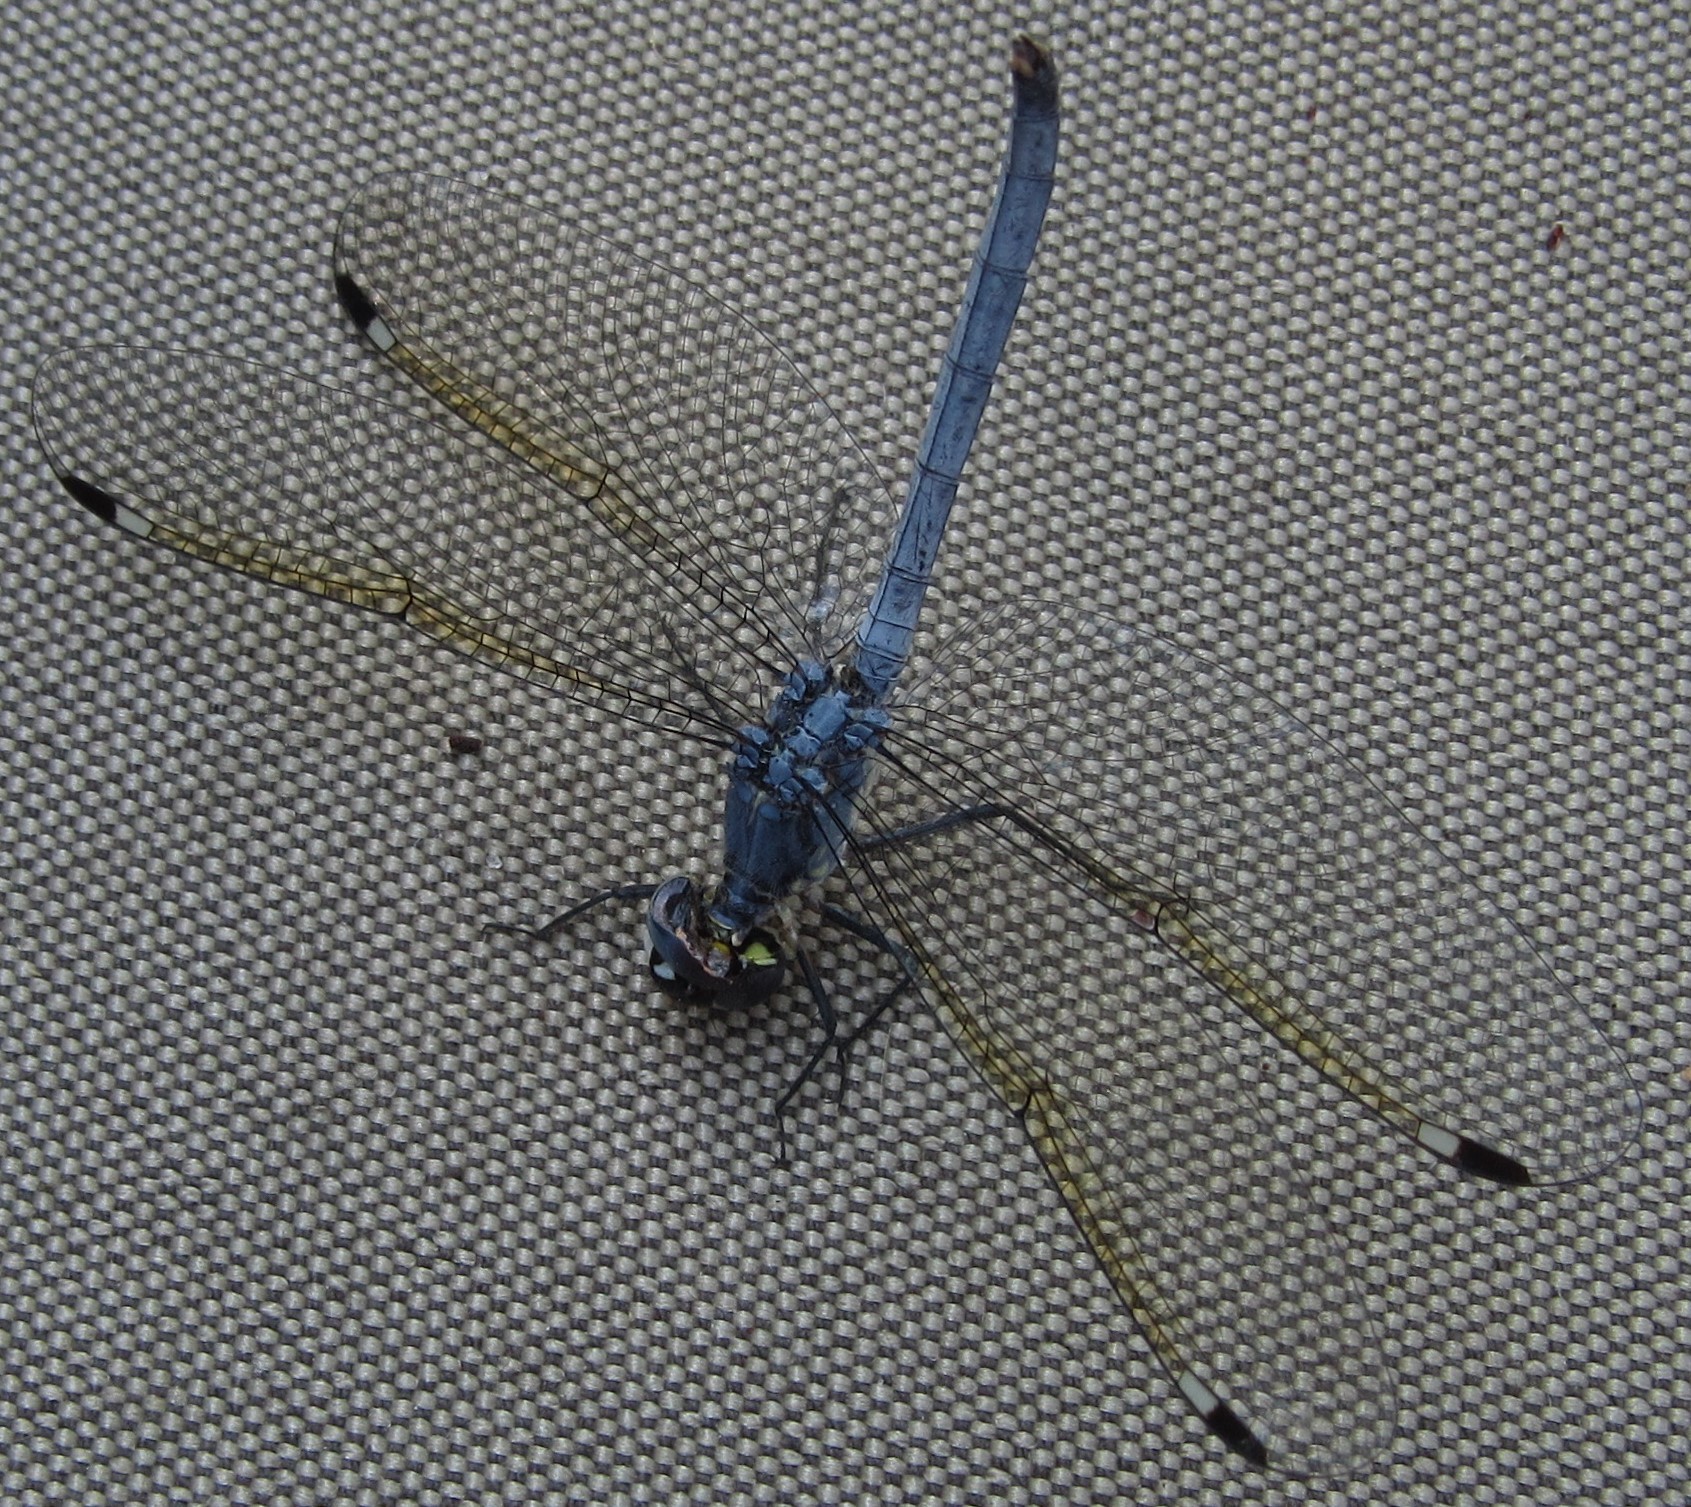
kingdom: Animalia
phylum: Arthropoda
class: Insecta
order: Odonata
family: Libellulidae
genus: Hemistigma
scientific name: Hemistigma albipunctum
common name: African pied-spot
